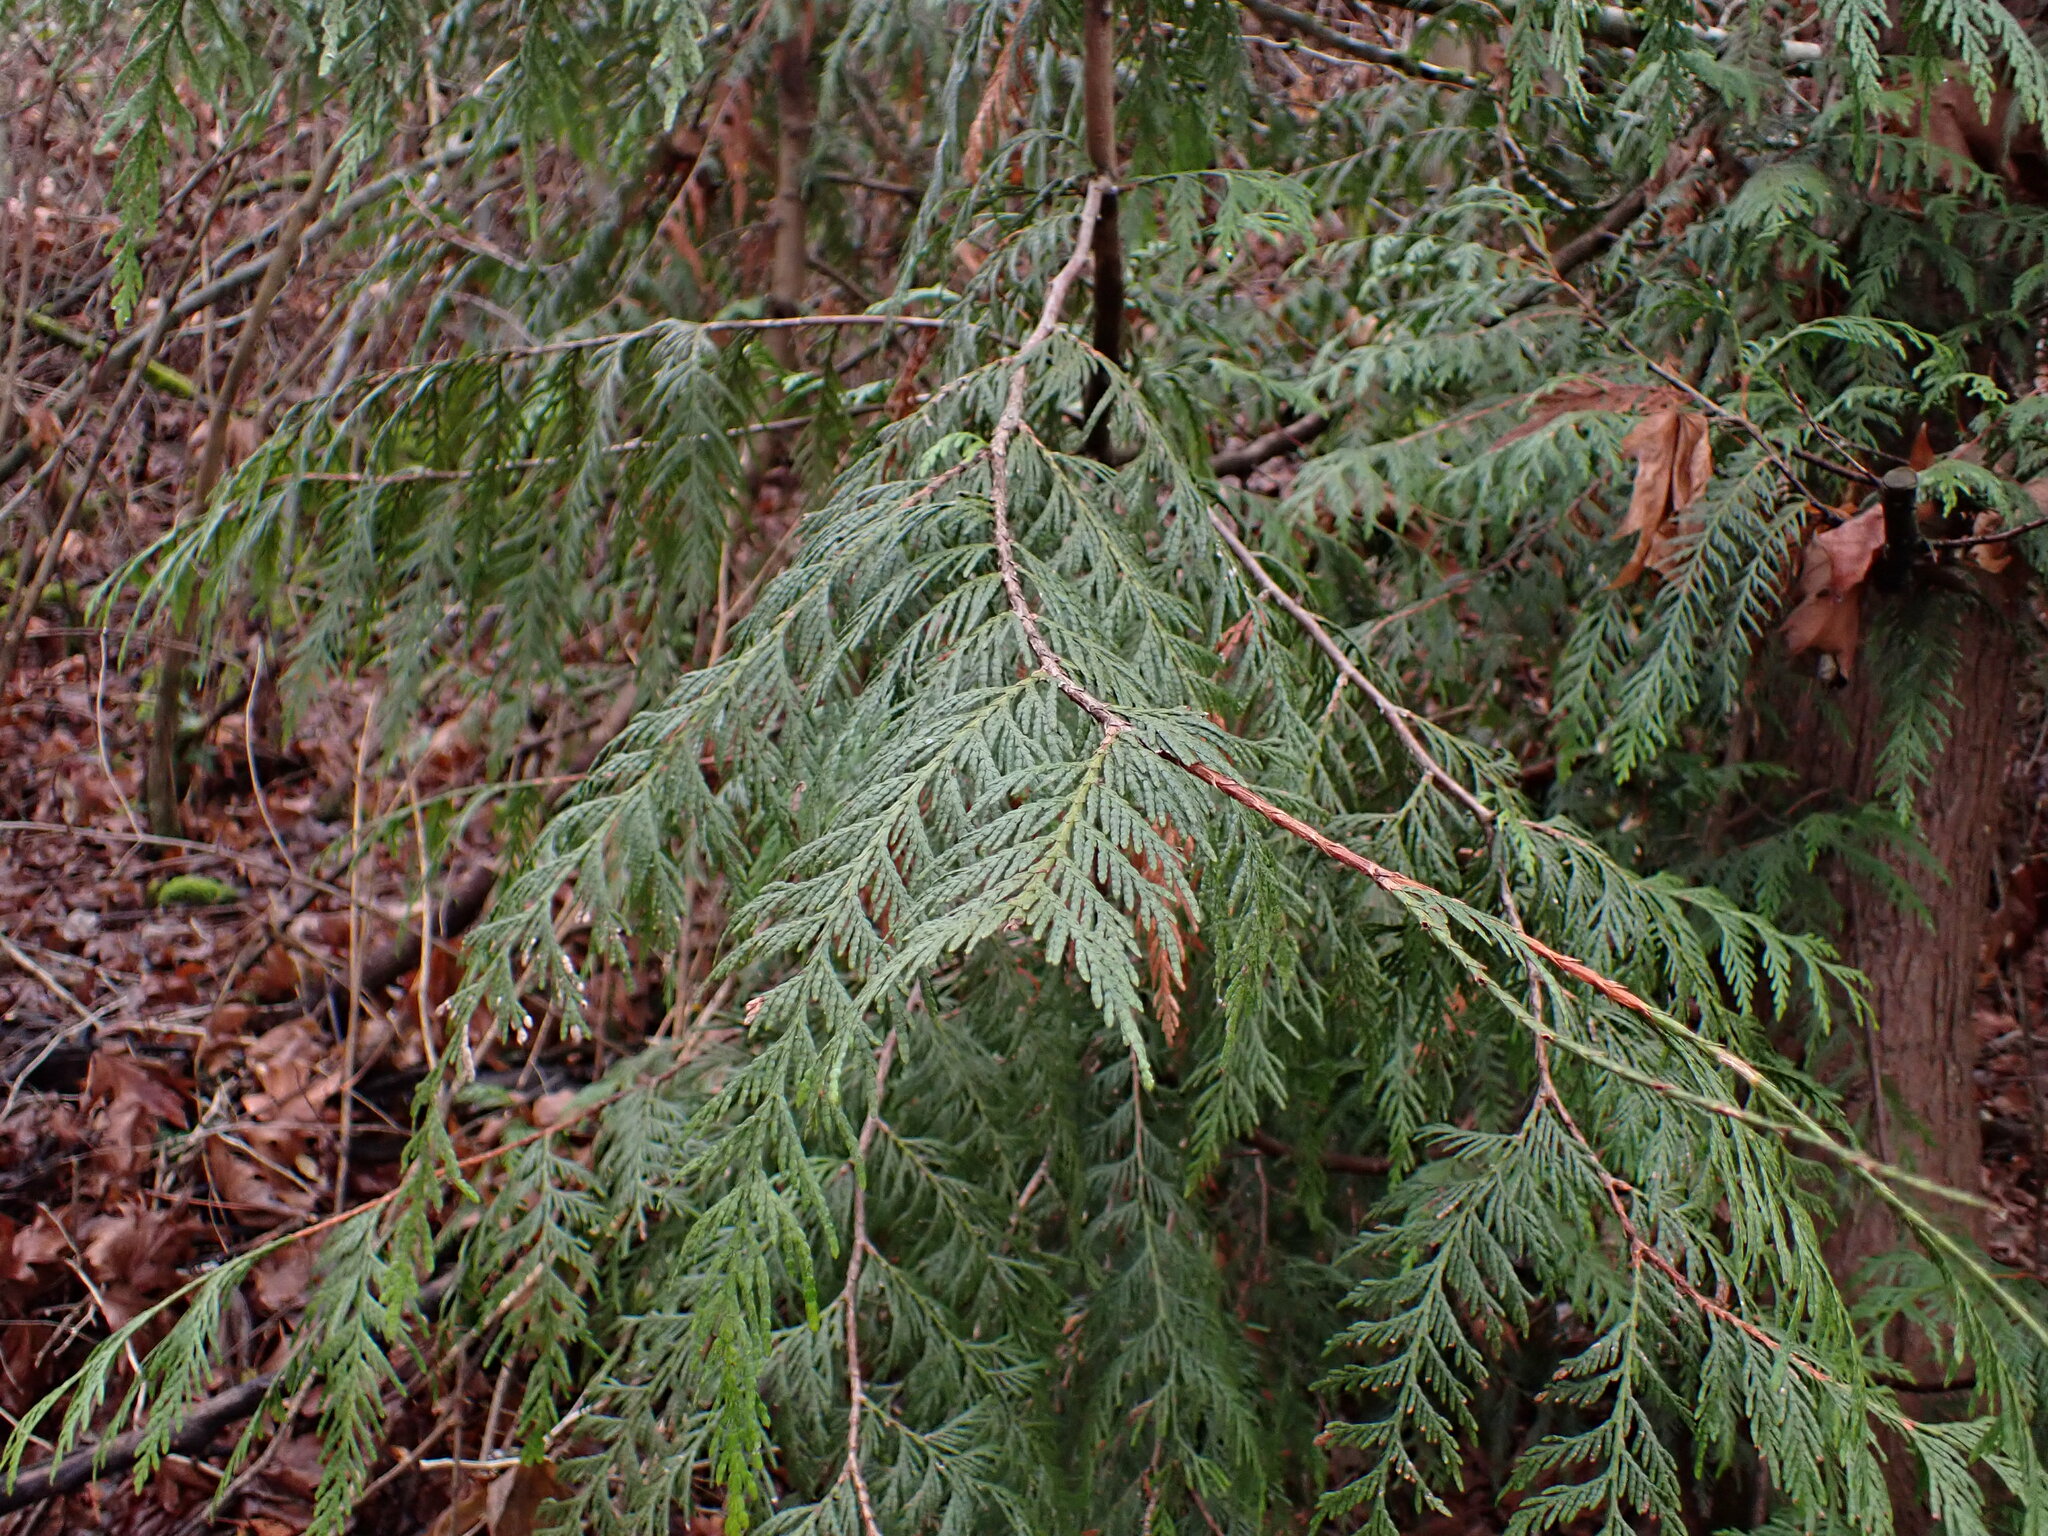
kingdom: Plantae
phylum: Tracheophyta
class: Pinopsida
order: Pinales
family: Cupressaceae
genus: Thuja
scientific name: Thuja plicata
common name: Western red-cedar
